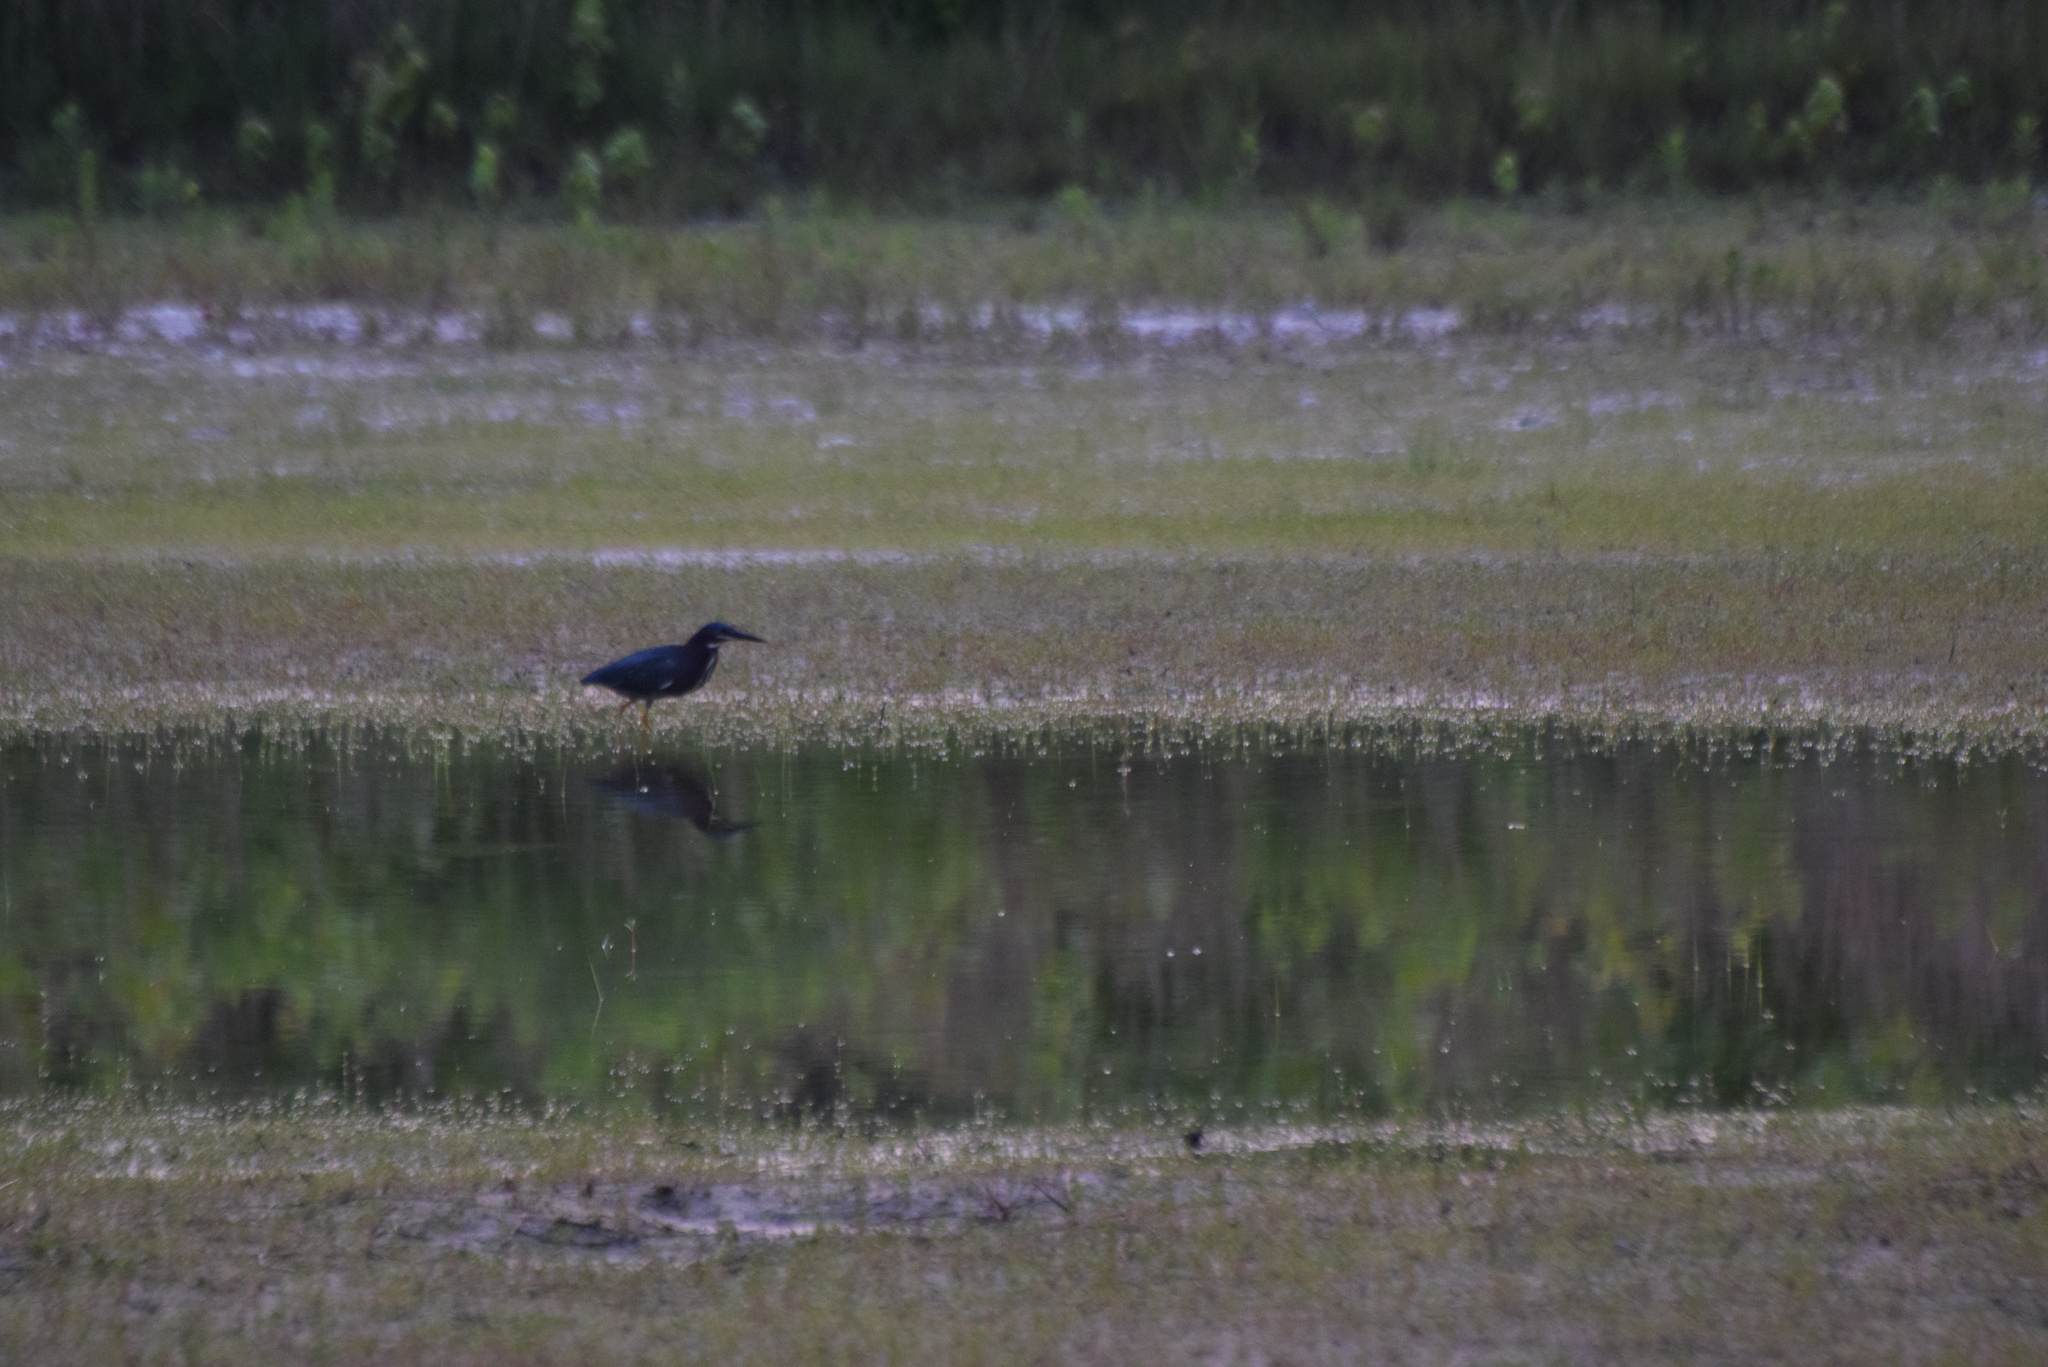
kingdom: Animalia
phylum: Chordata
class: Aves
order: Pelecaniformes
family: Ardeidae
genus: Butorides
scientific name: Butorides virescens
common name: Green heron
